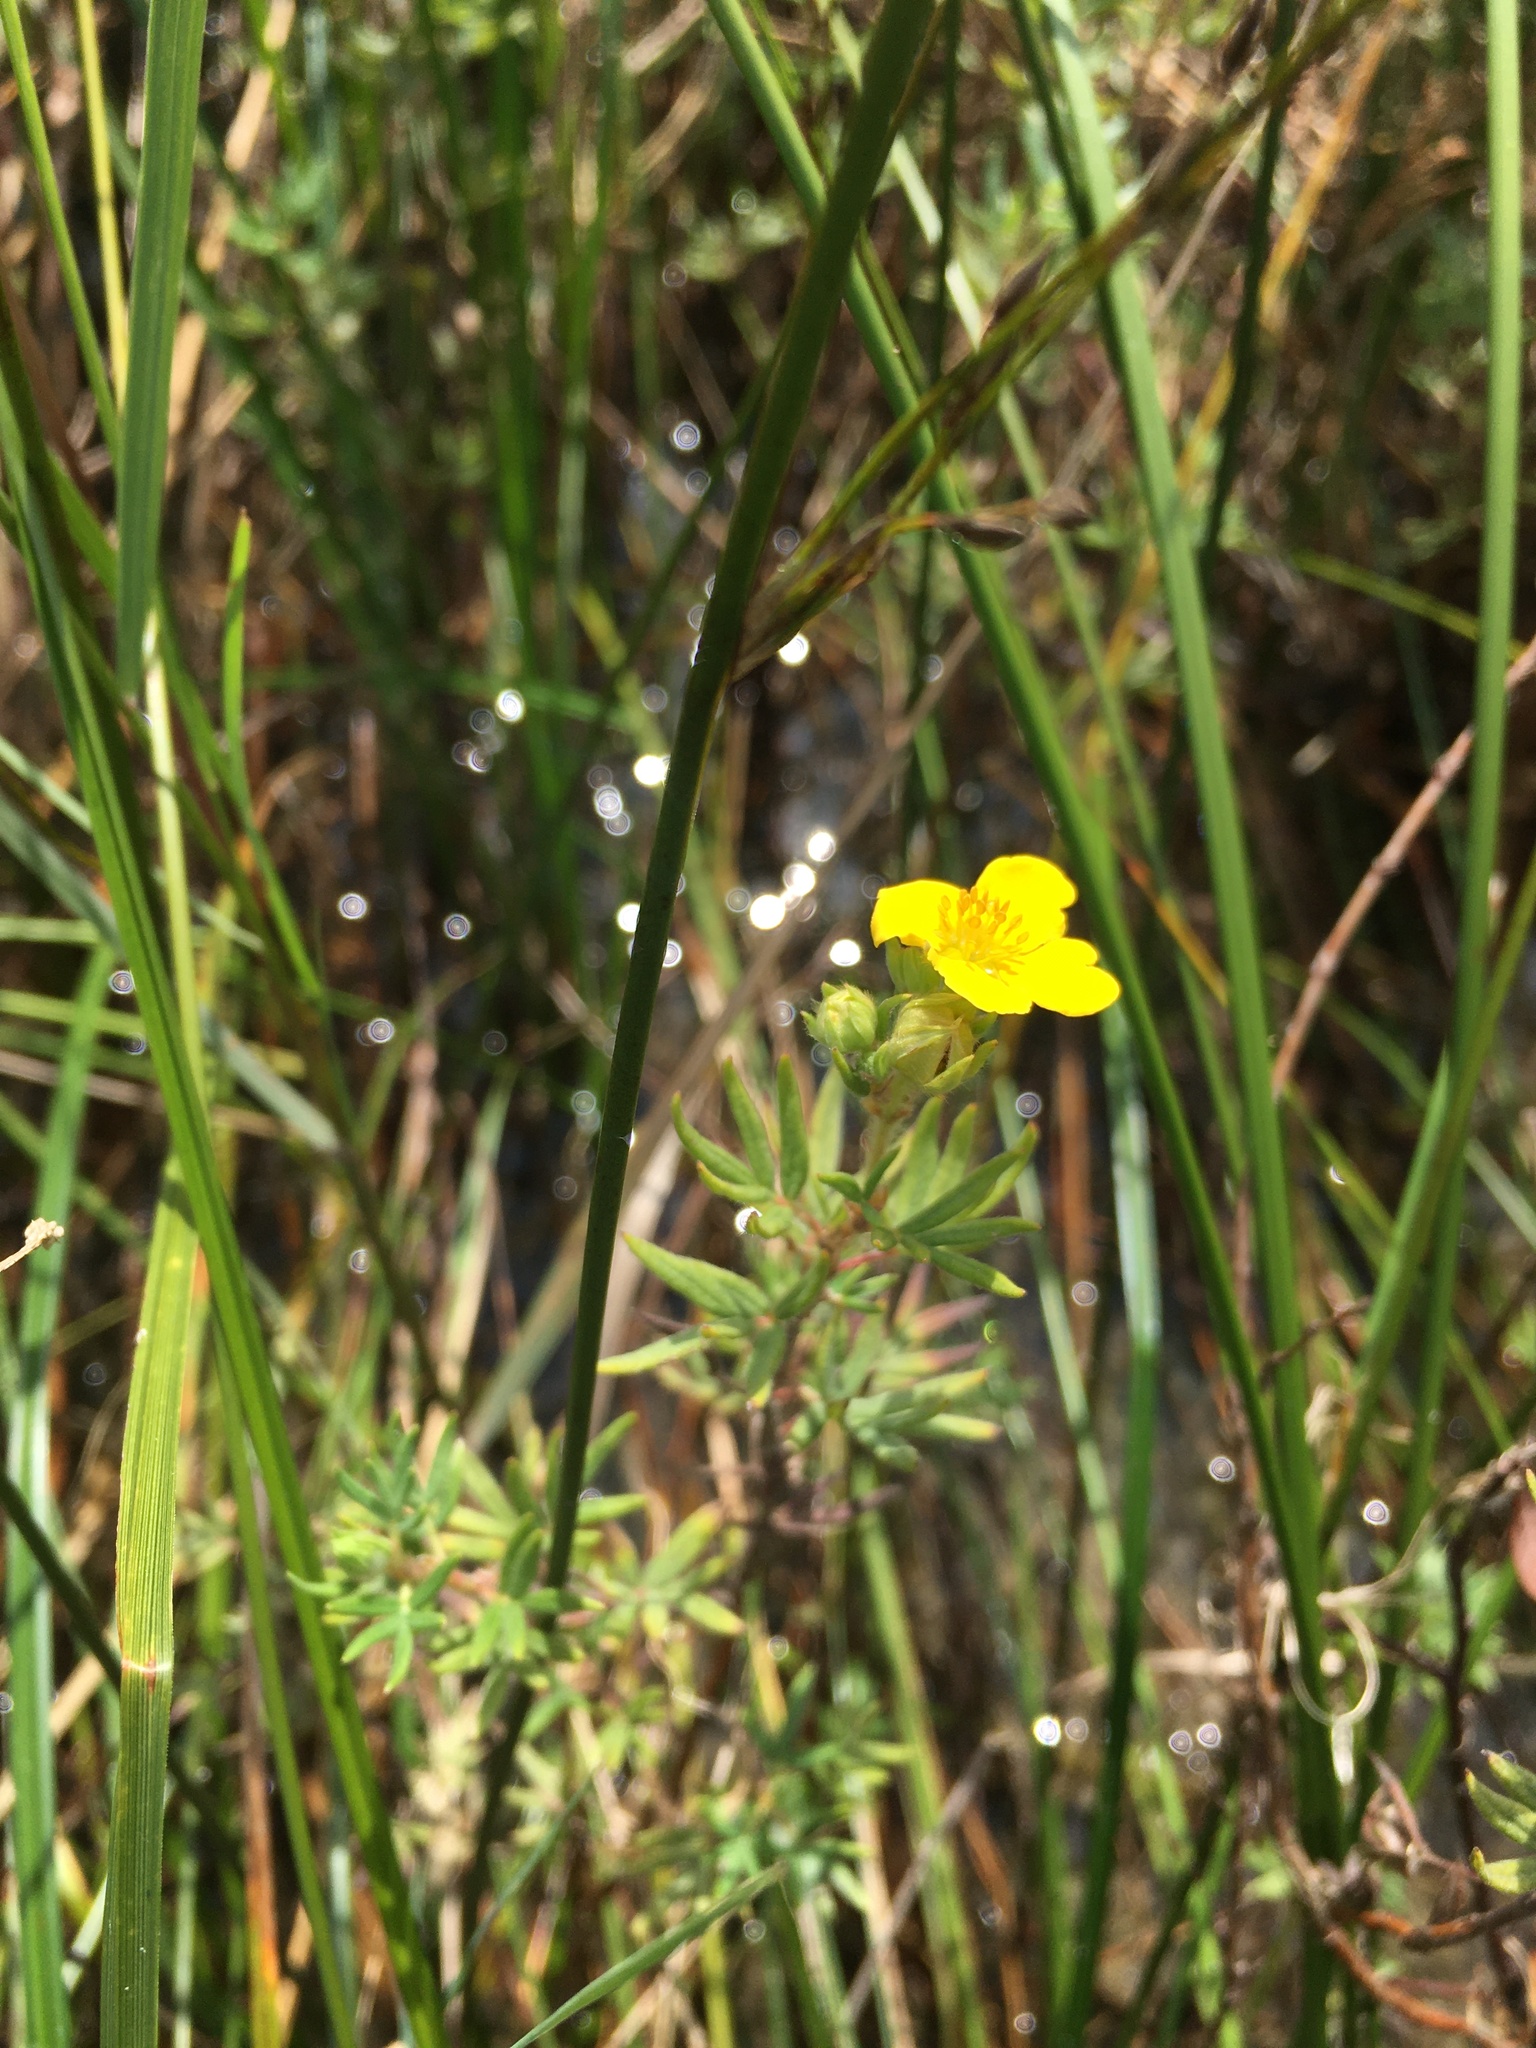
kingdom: Plantae
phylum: Tracheophyta
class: Magnoliopsida
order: Rosales
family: Rosaceae
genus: Dasiphora
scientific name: Dasiphora fruticosa
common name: Shrubby cinquefoil
